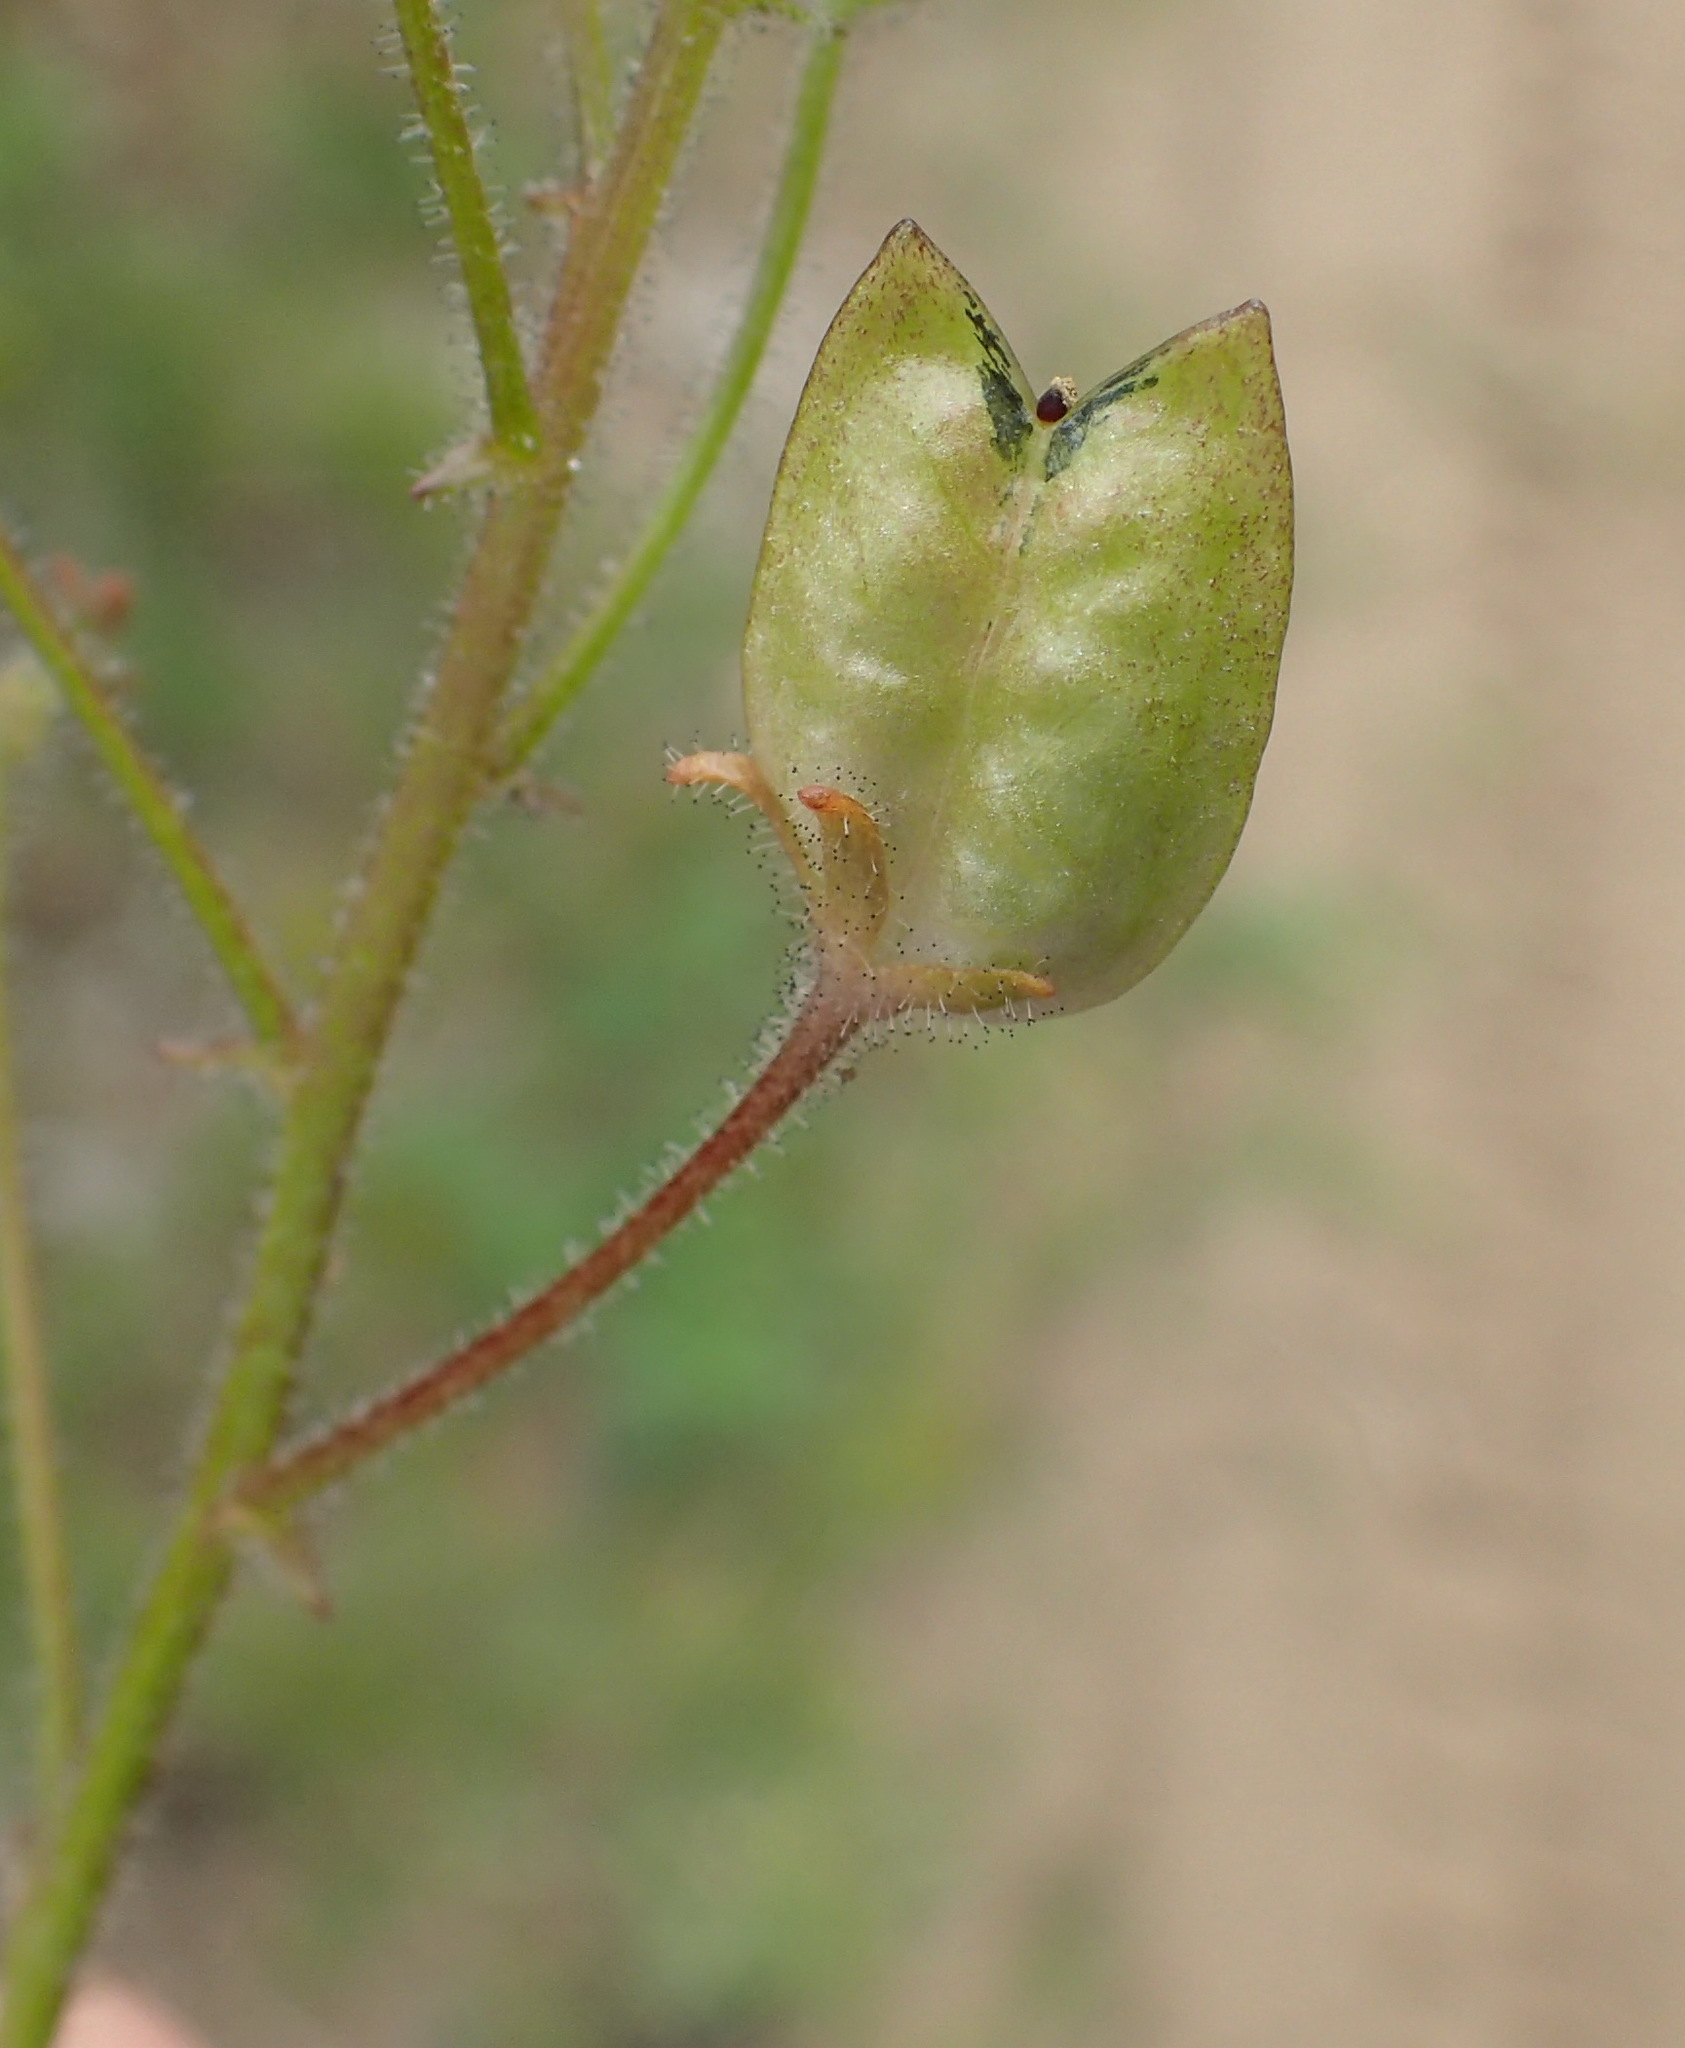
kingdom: Plantae
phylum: Tracheophyta
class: Magnoliopsida
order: Lamiales
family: Scrophulariaceae
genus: Nemesia
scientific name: Nemesia affinis
